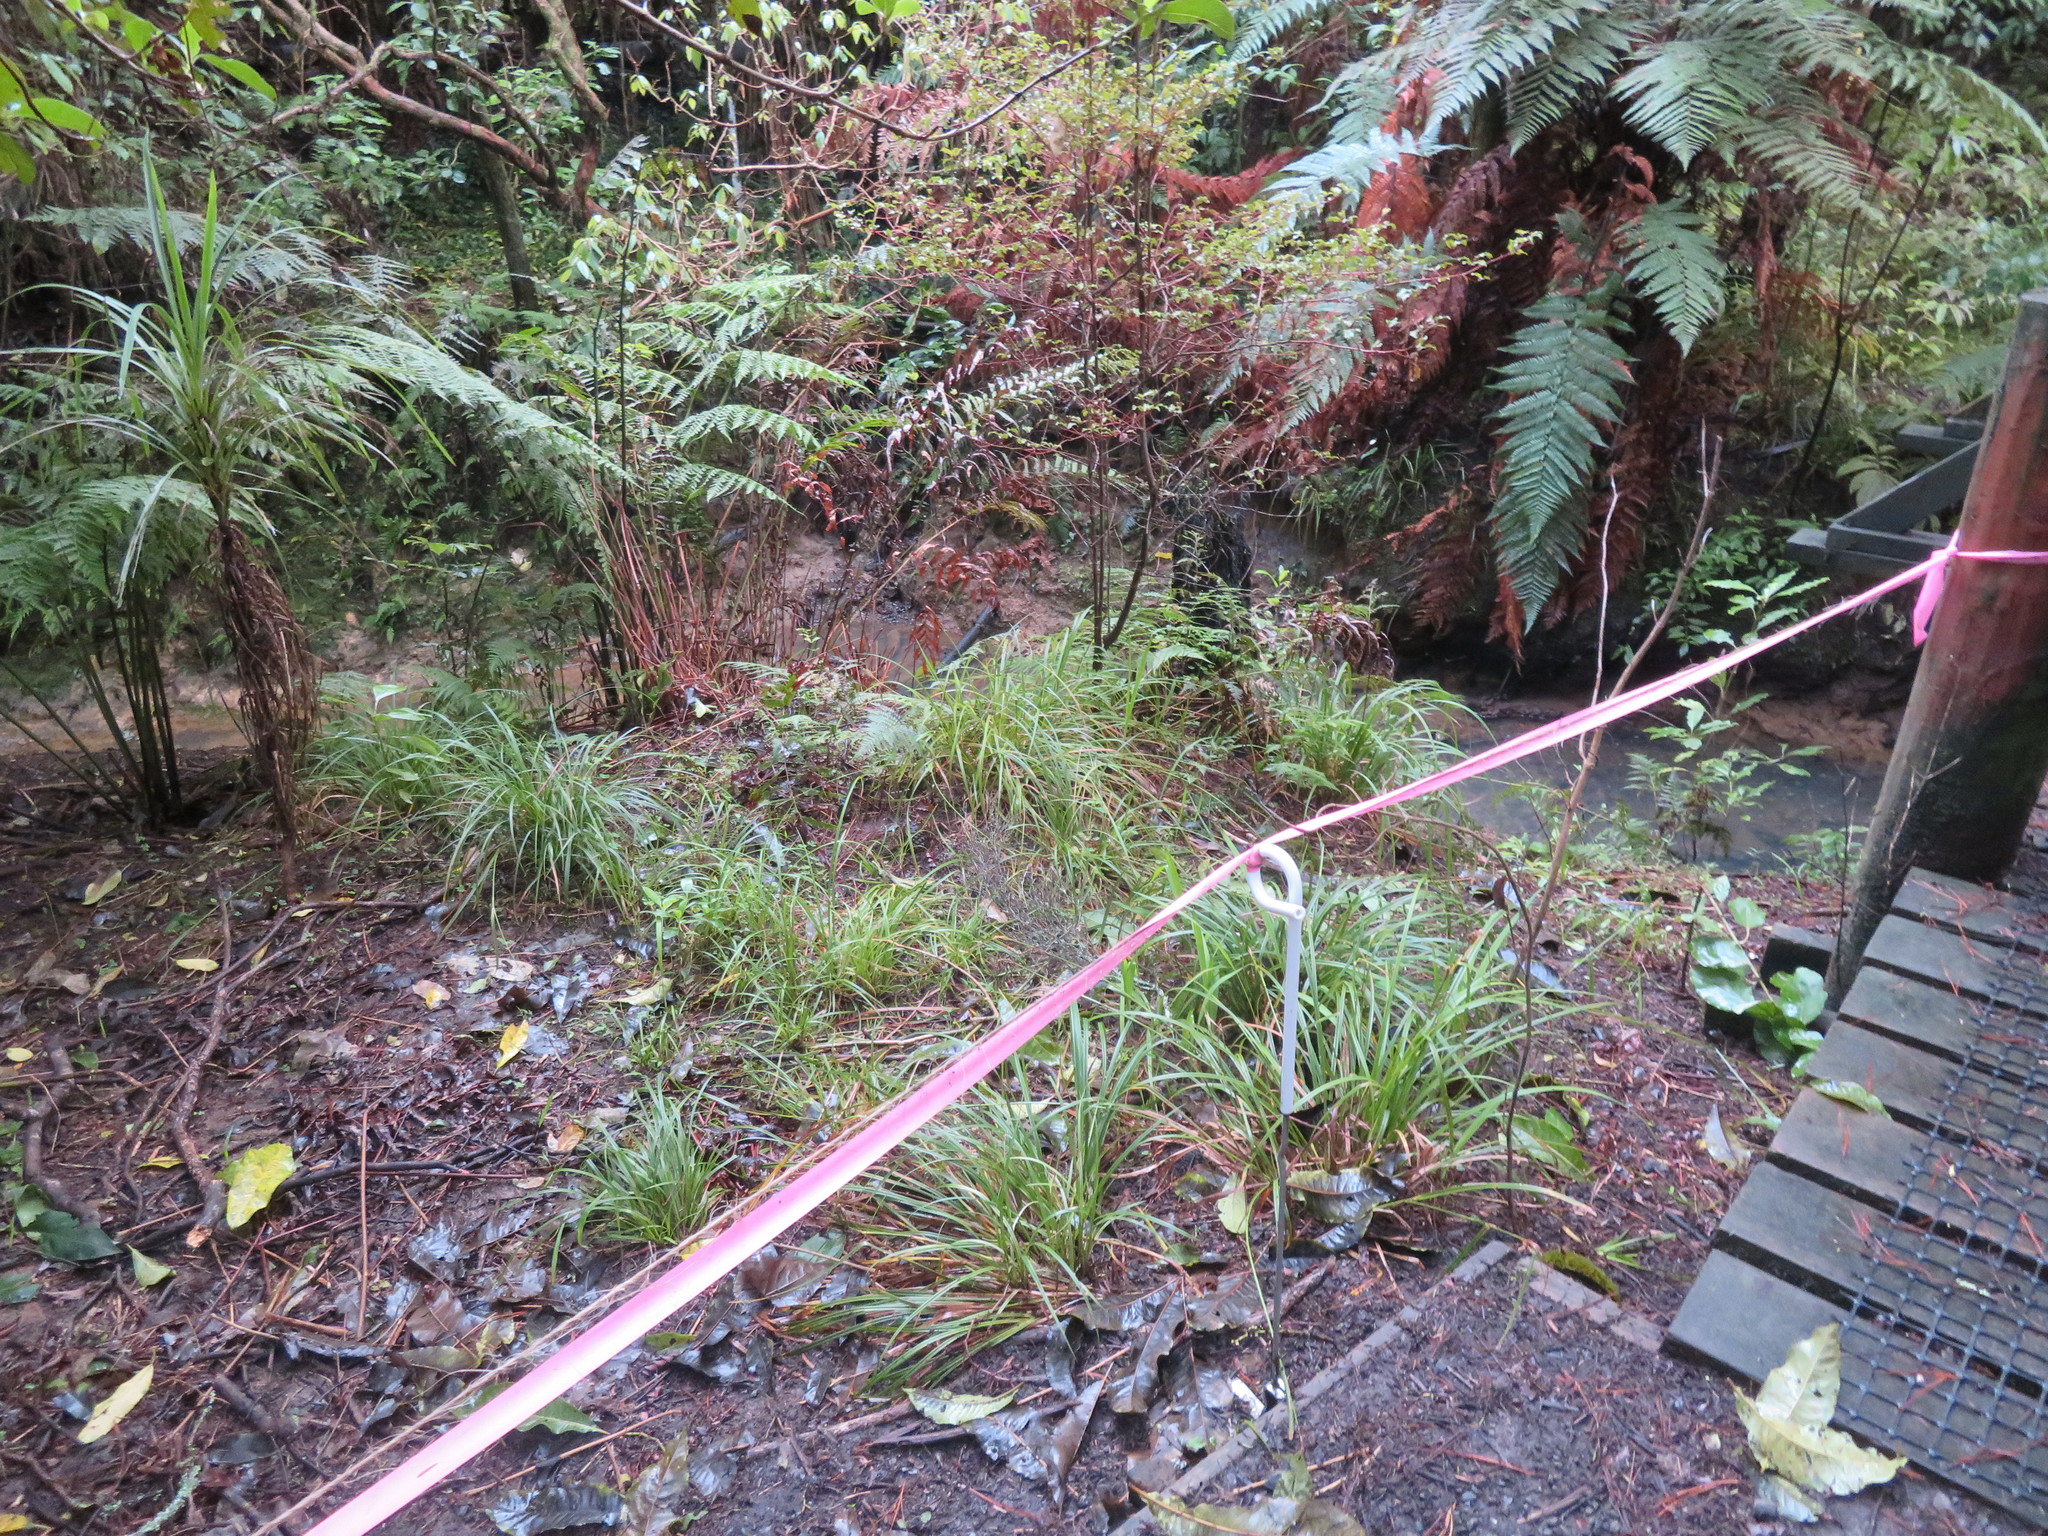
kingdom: Plantae
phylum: Tracheophyta
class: Liliopsida
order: Asparagales
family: Asparagaceae
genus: Cordyline
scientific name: Cordyline australis
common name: Cabbage-palm
